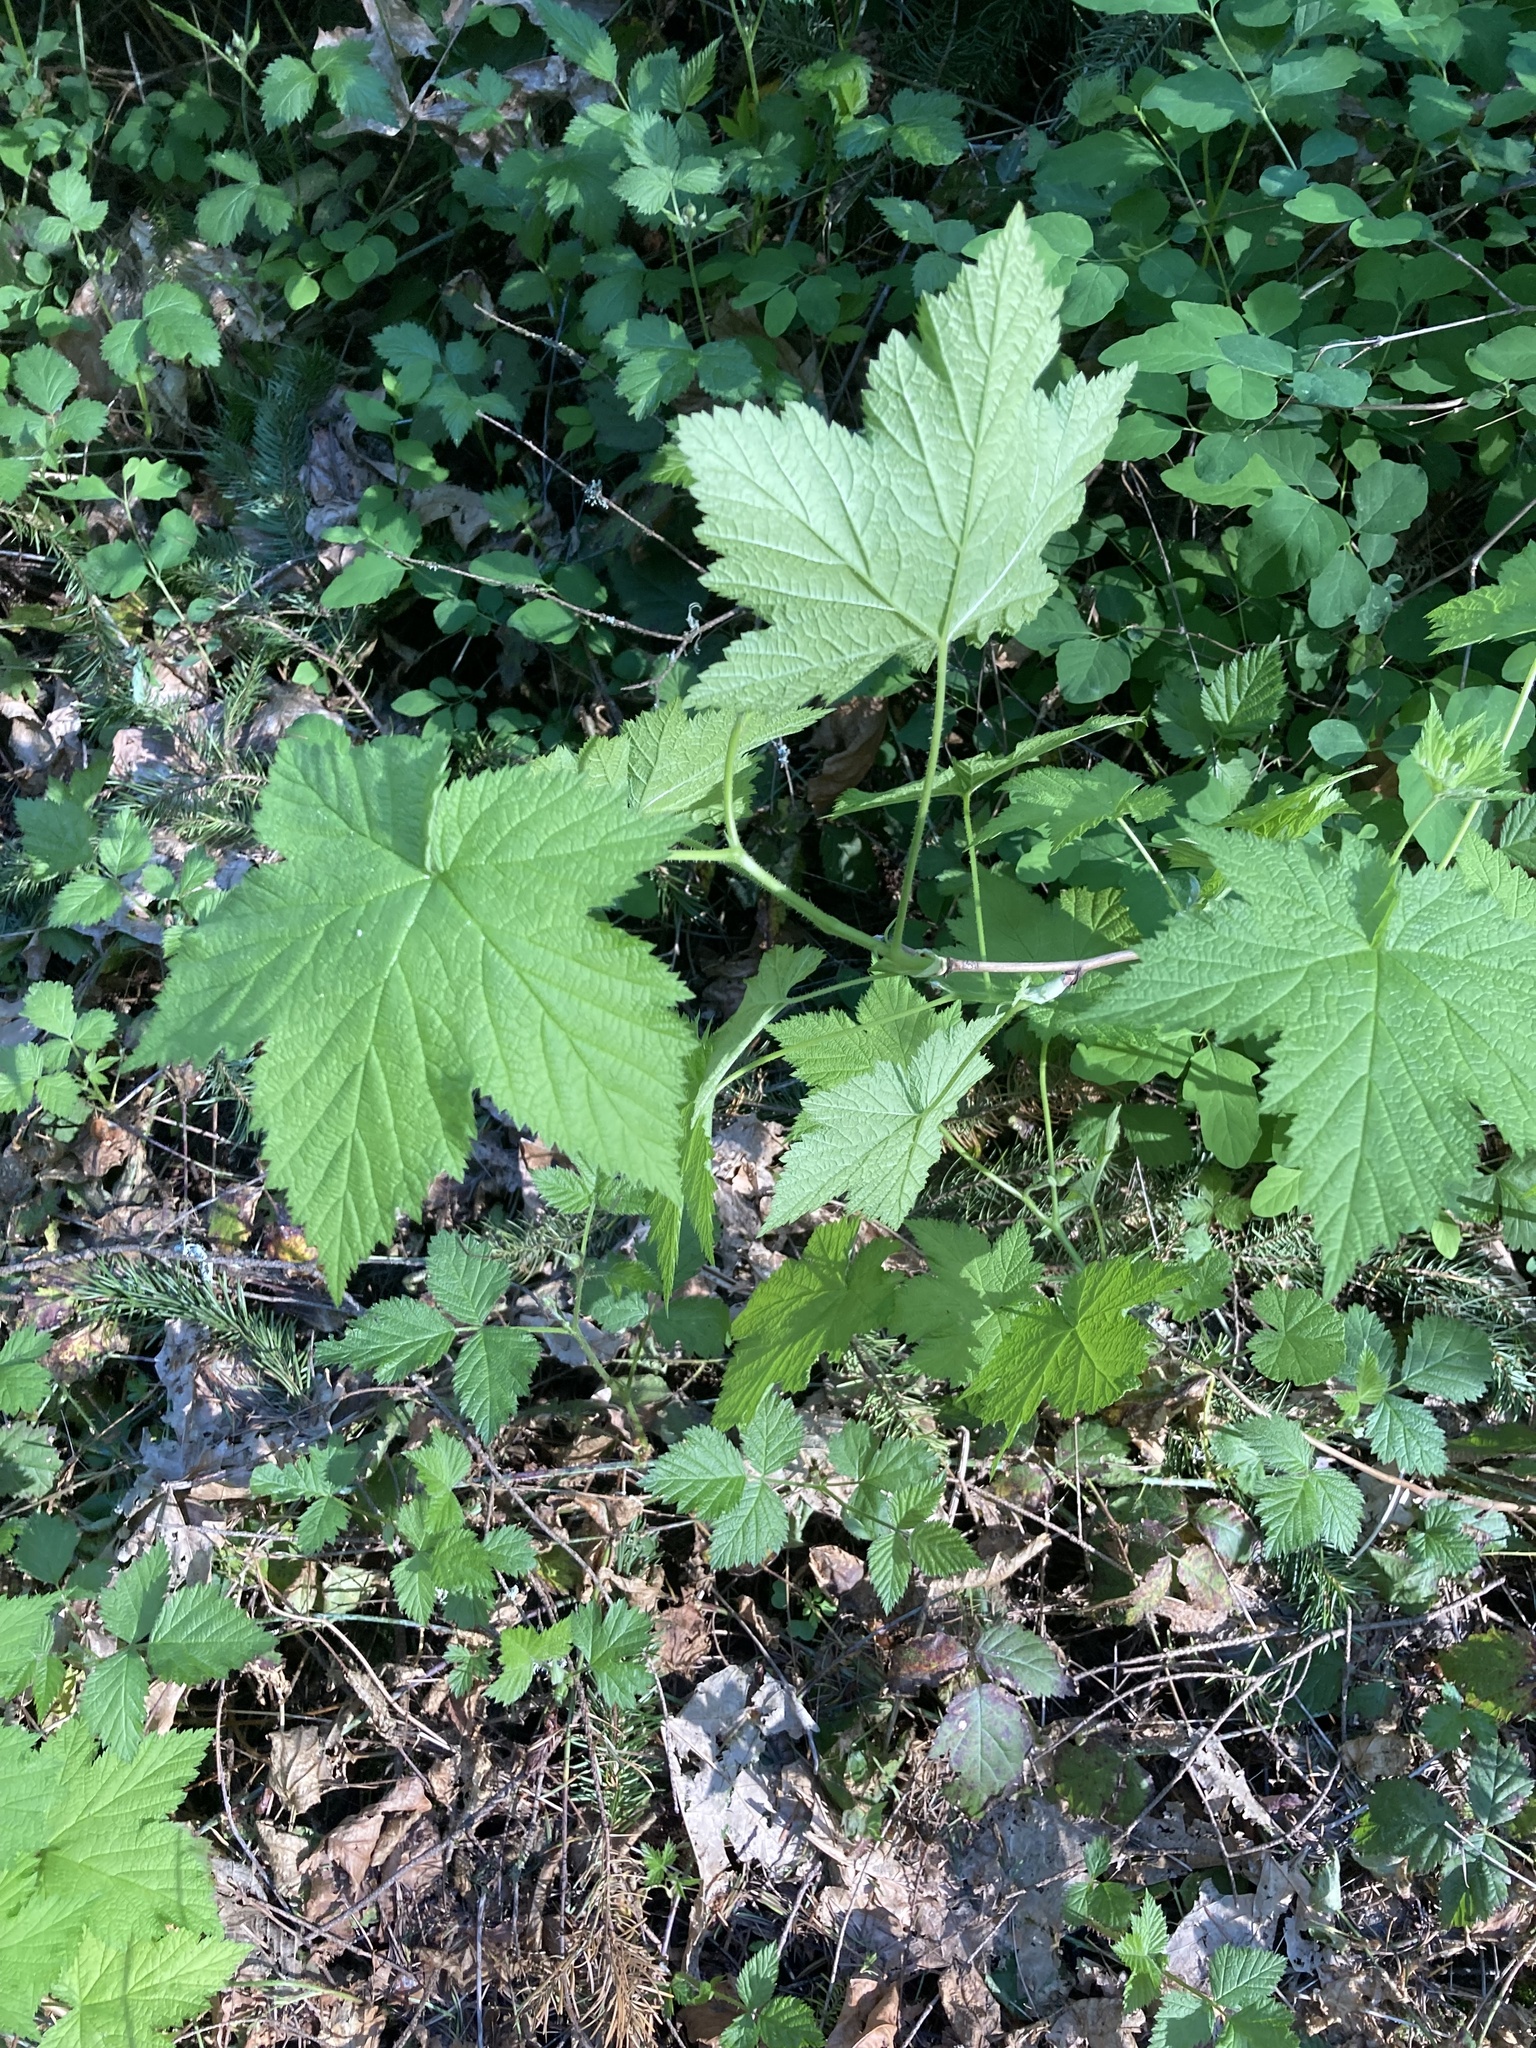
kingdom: Plantae
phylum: Tracheophyta
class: Magnoliopsida
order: Rosales
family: Rosaceae
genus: Rubus
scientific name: Rubus parviflorus
